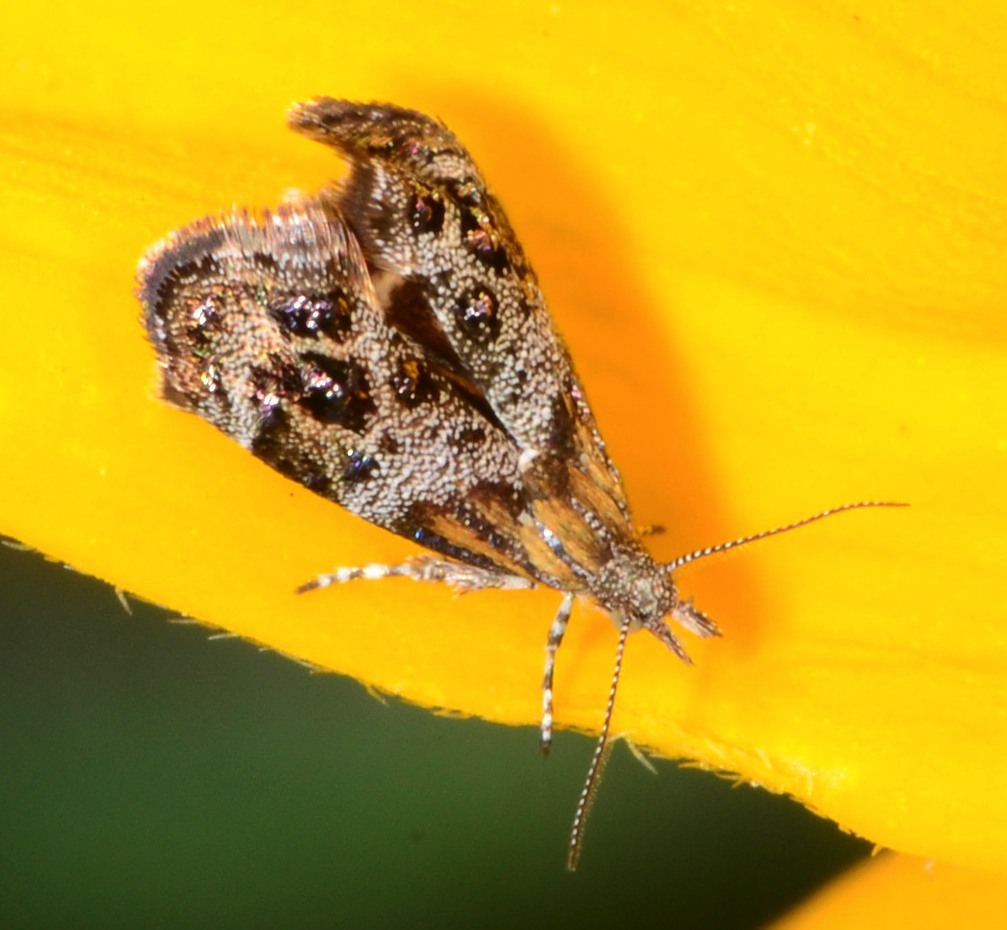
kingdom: Animalia
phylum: Arthropoda
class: Insecta
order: Lepidoptera
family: Choreutidae
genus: Tebenna
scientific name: Tebenna gnaphaliella
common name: Everlasting tebenna moth
